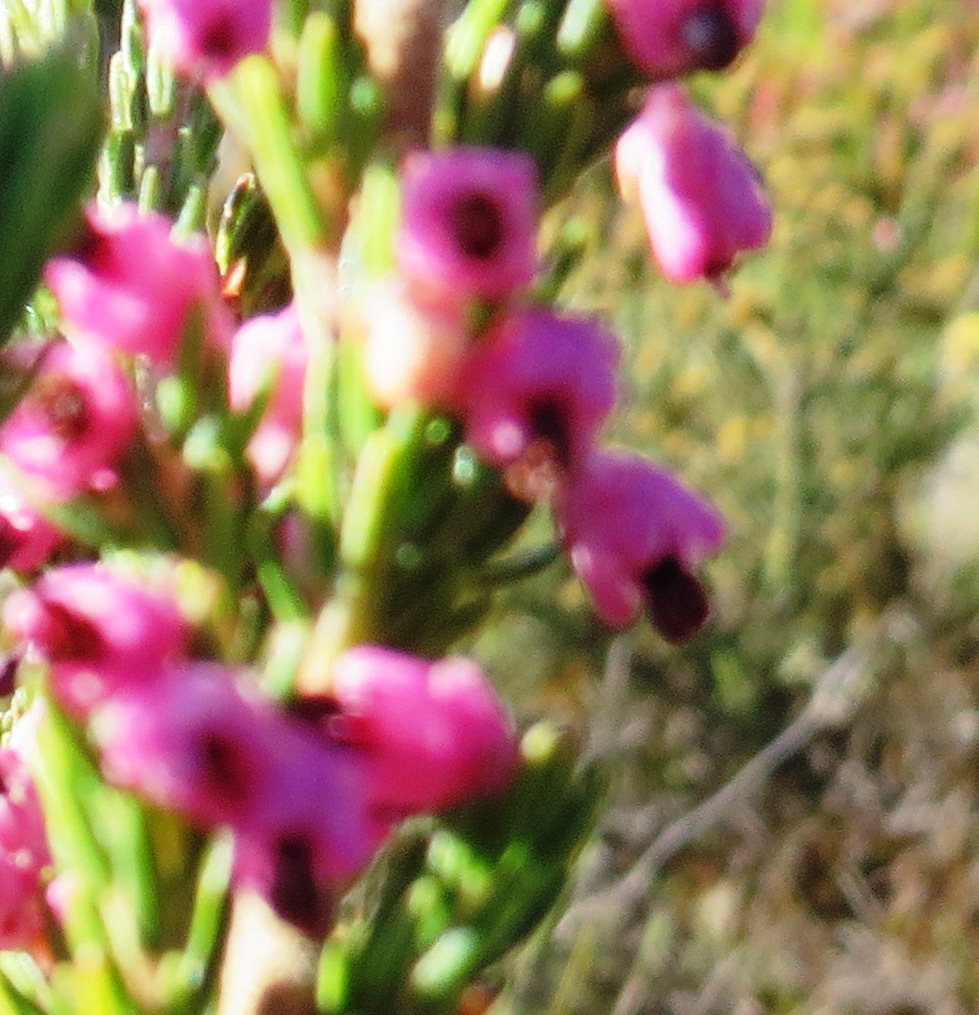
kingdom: Plantae
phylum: Tracheophyta
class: Magnoliopsida
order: Ericales
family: Ericaceae
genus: Erica
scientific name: Erica placentiflora
